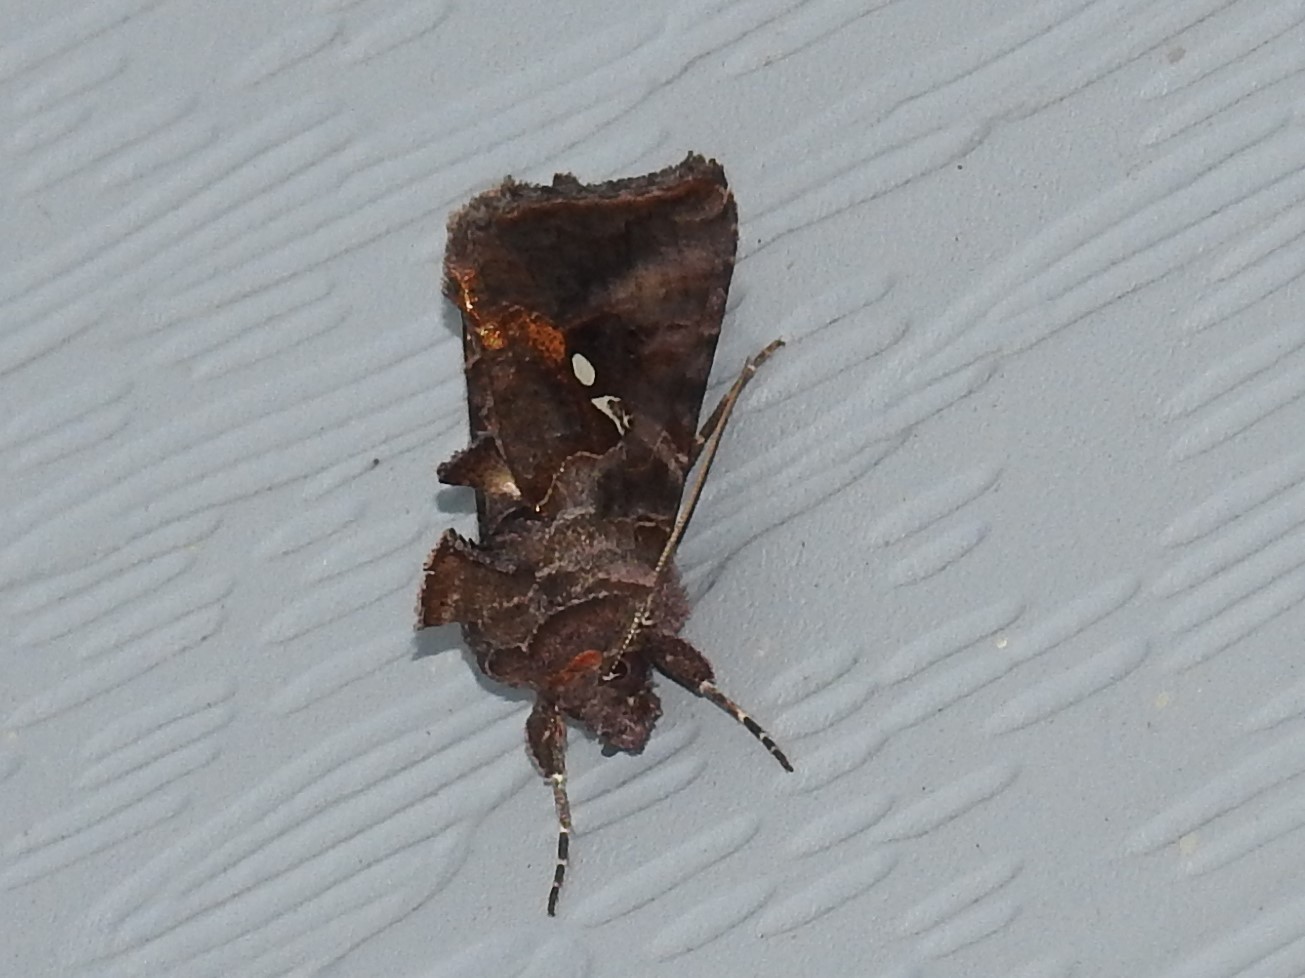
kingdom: Animalia
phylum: Arthropoda
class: Insecta
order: Lepidoptera
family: Noctuidae
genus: Autographa
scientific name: Autographa precationis
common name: Common looper moth
